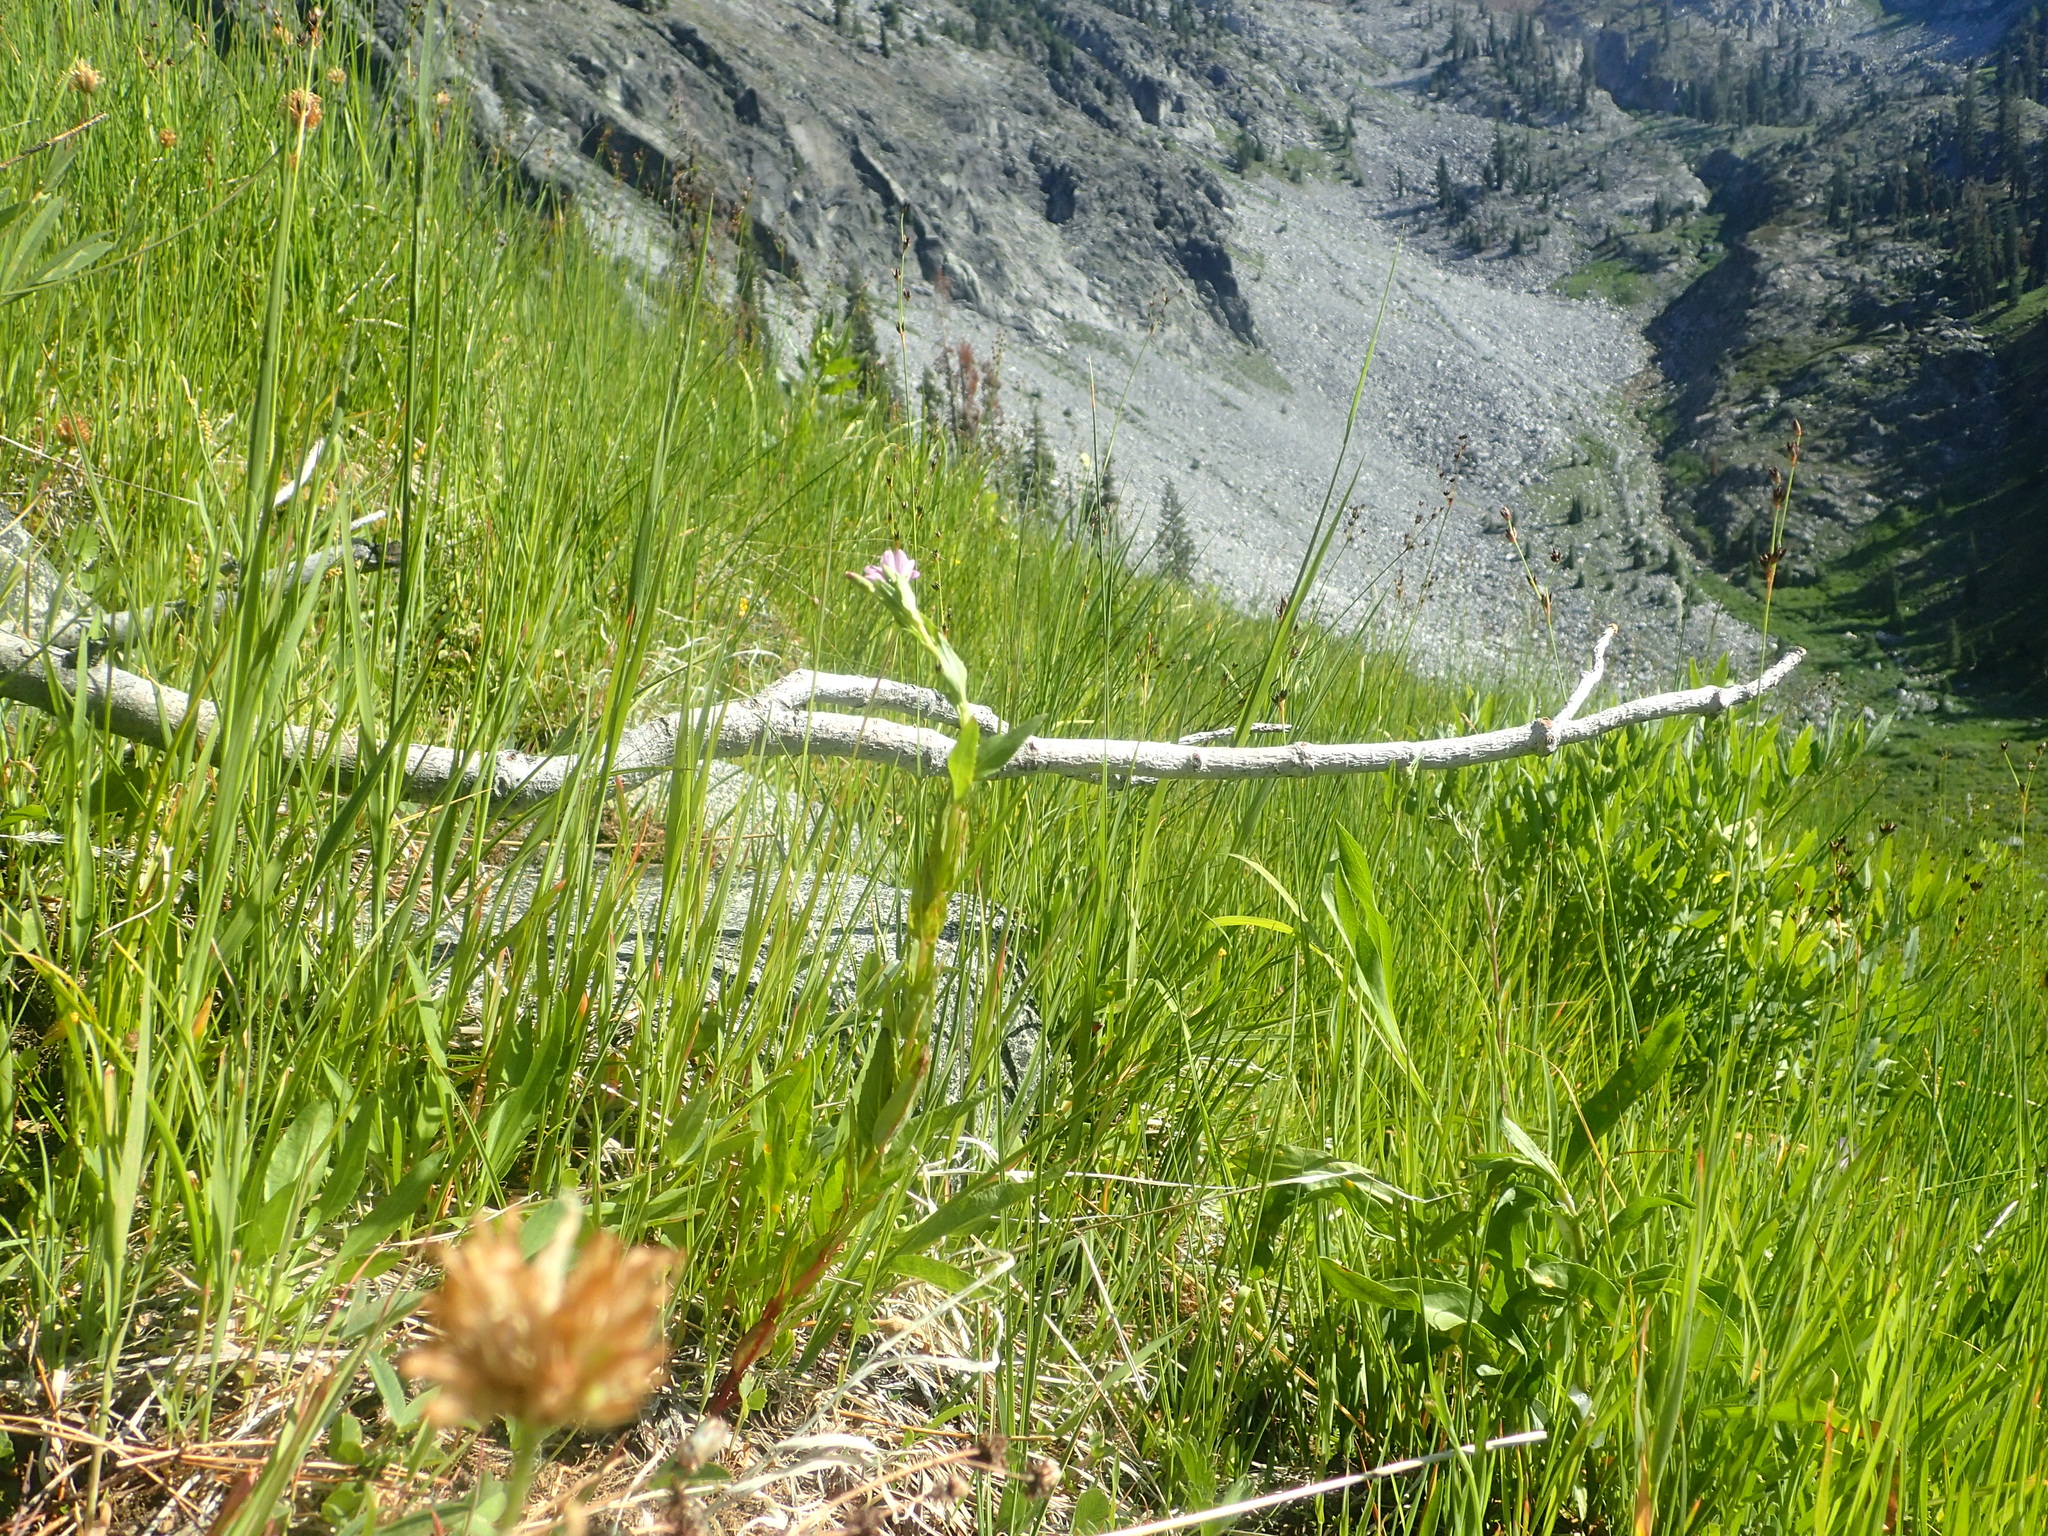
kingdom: Plantae
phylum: Tracheophyta
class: Magnoliopsida
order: Myrtales
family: Onagraceae
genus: Epilobium
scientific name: Epilobium oreganum
